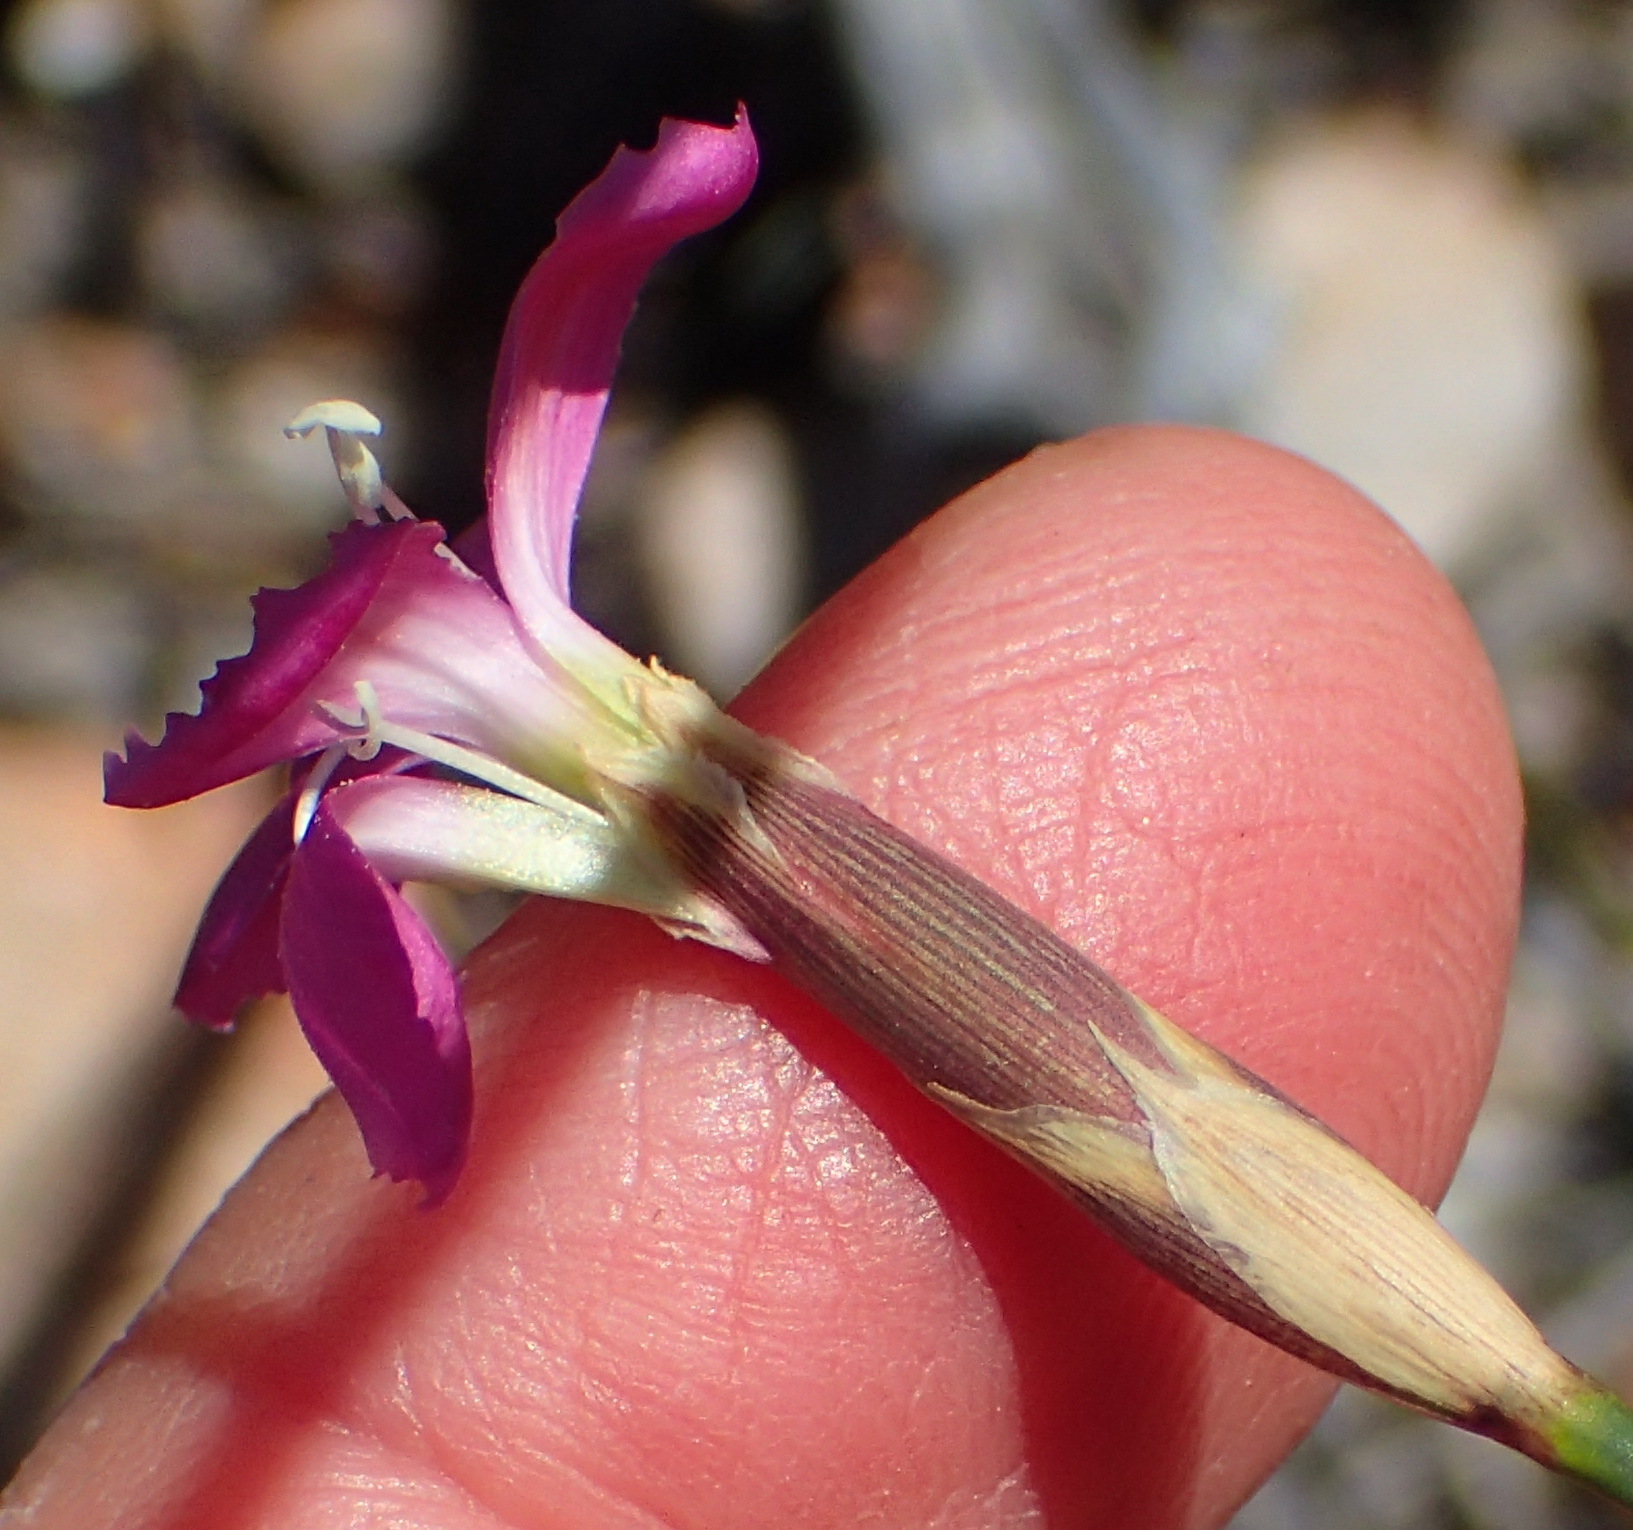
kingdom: Plantae
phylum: Tracheophyta
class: Magnoliopsida
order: Caryophyllales
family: Caryophyllaceae
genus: Dianthus
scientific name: Dianthus basuticus
